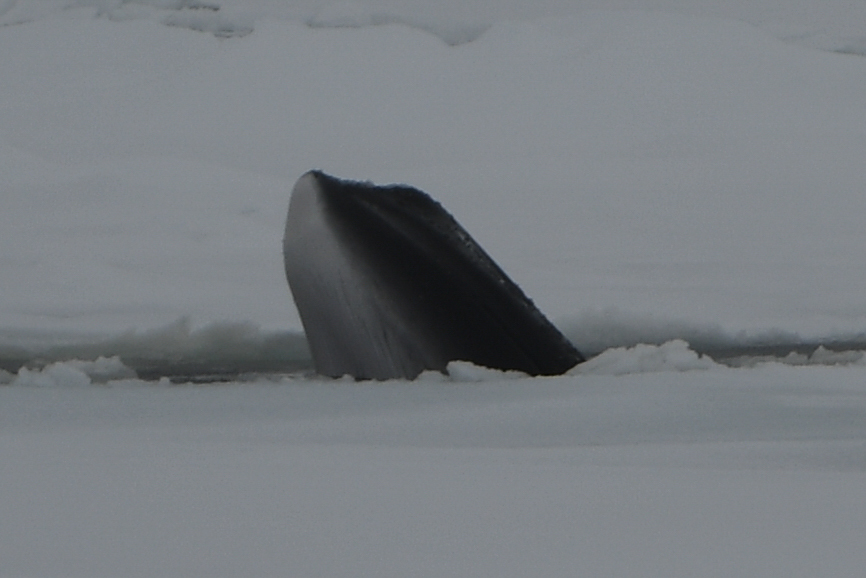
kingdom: Animalia
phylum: Chordata
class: Mammalia
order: Cetacea
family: Balaenopteridae
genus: Balaenoptera
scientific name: Balaenoptera bonaerensis
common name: Antarctic minke whale
